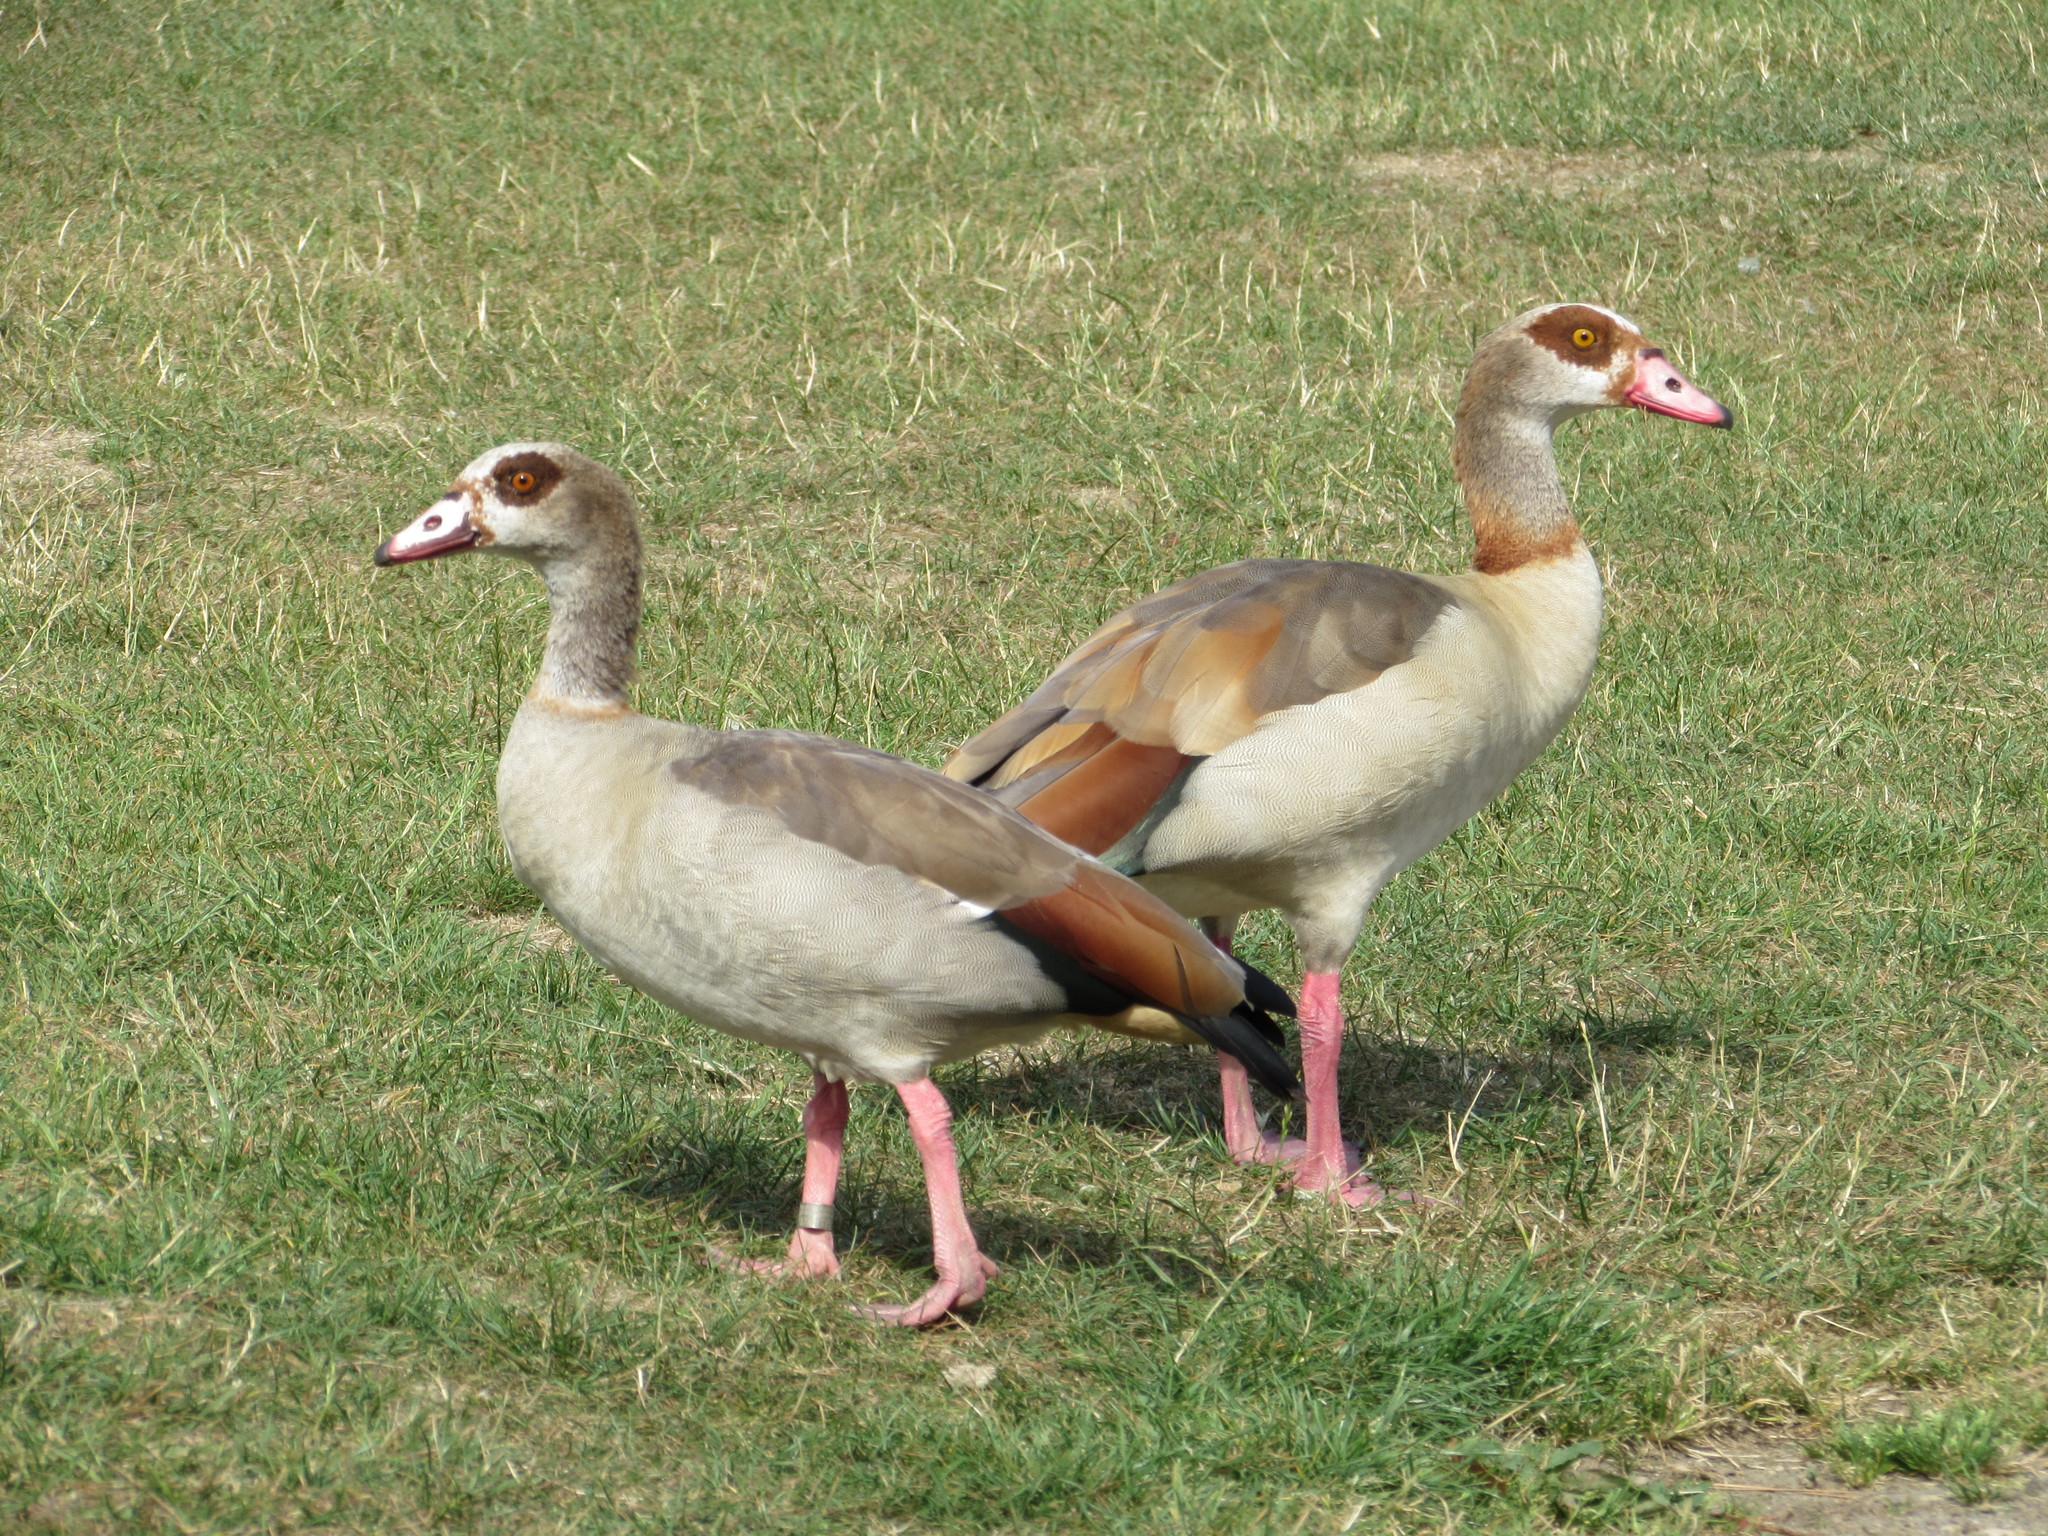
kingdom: Animalia
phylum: Chordata
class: Aves
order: Anseriformes
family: Anatidae
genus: Alopochen
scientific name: Alopochen aegyptiaca
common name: Egyptian goose
